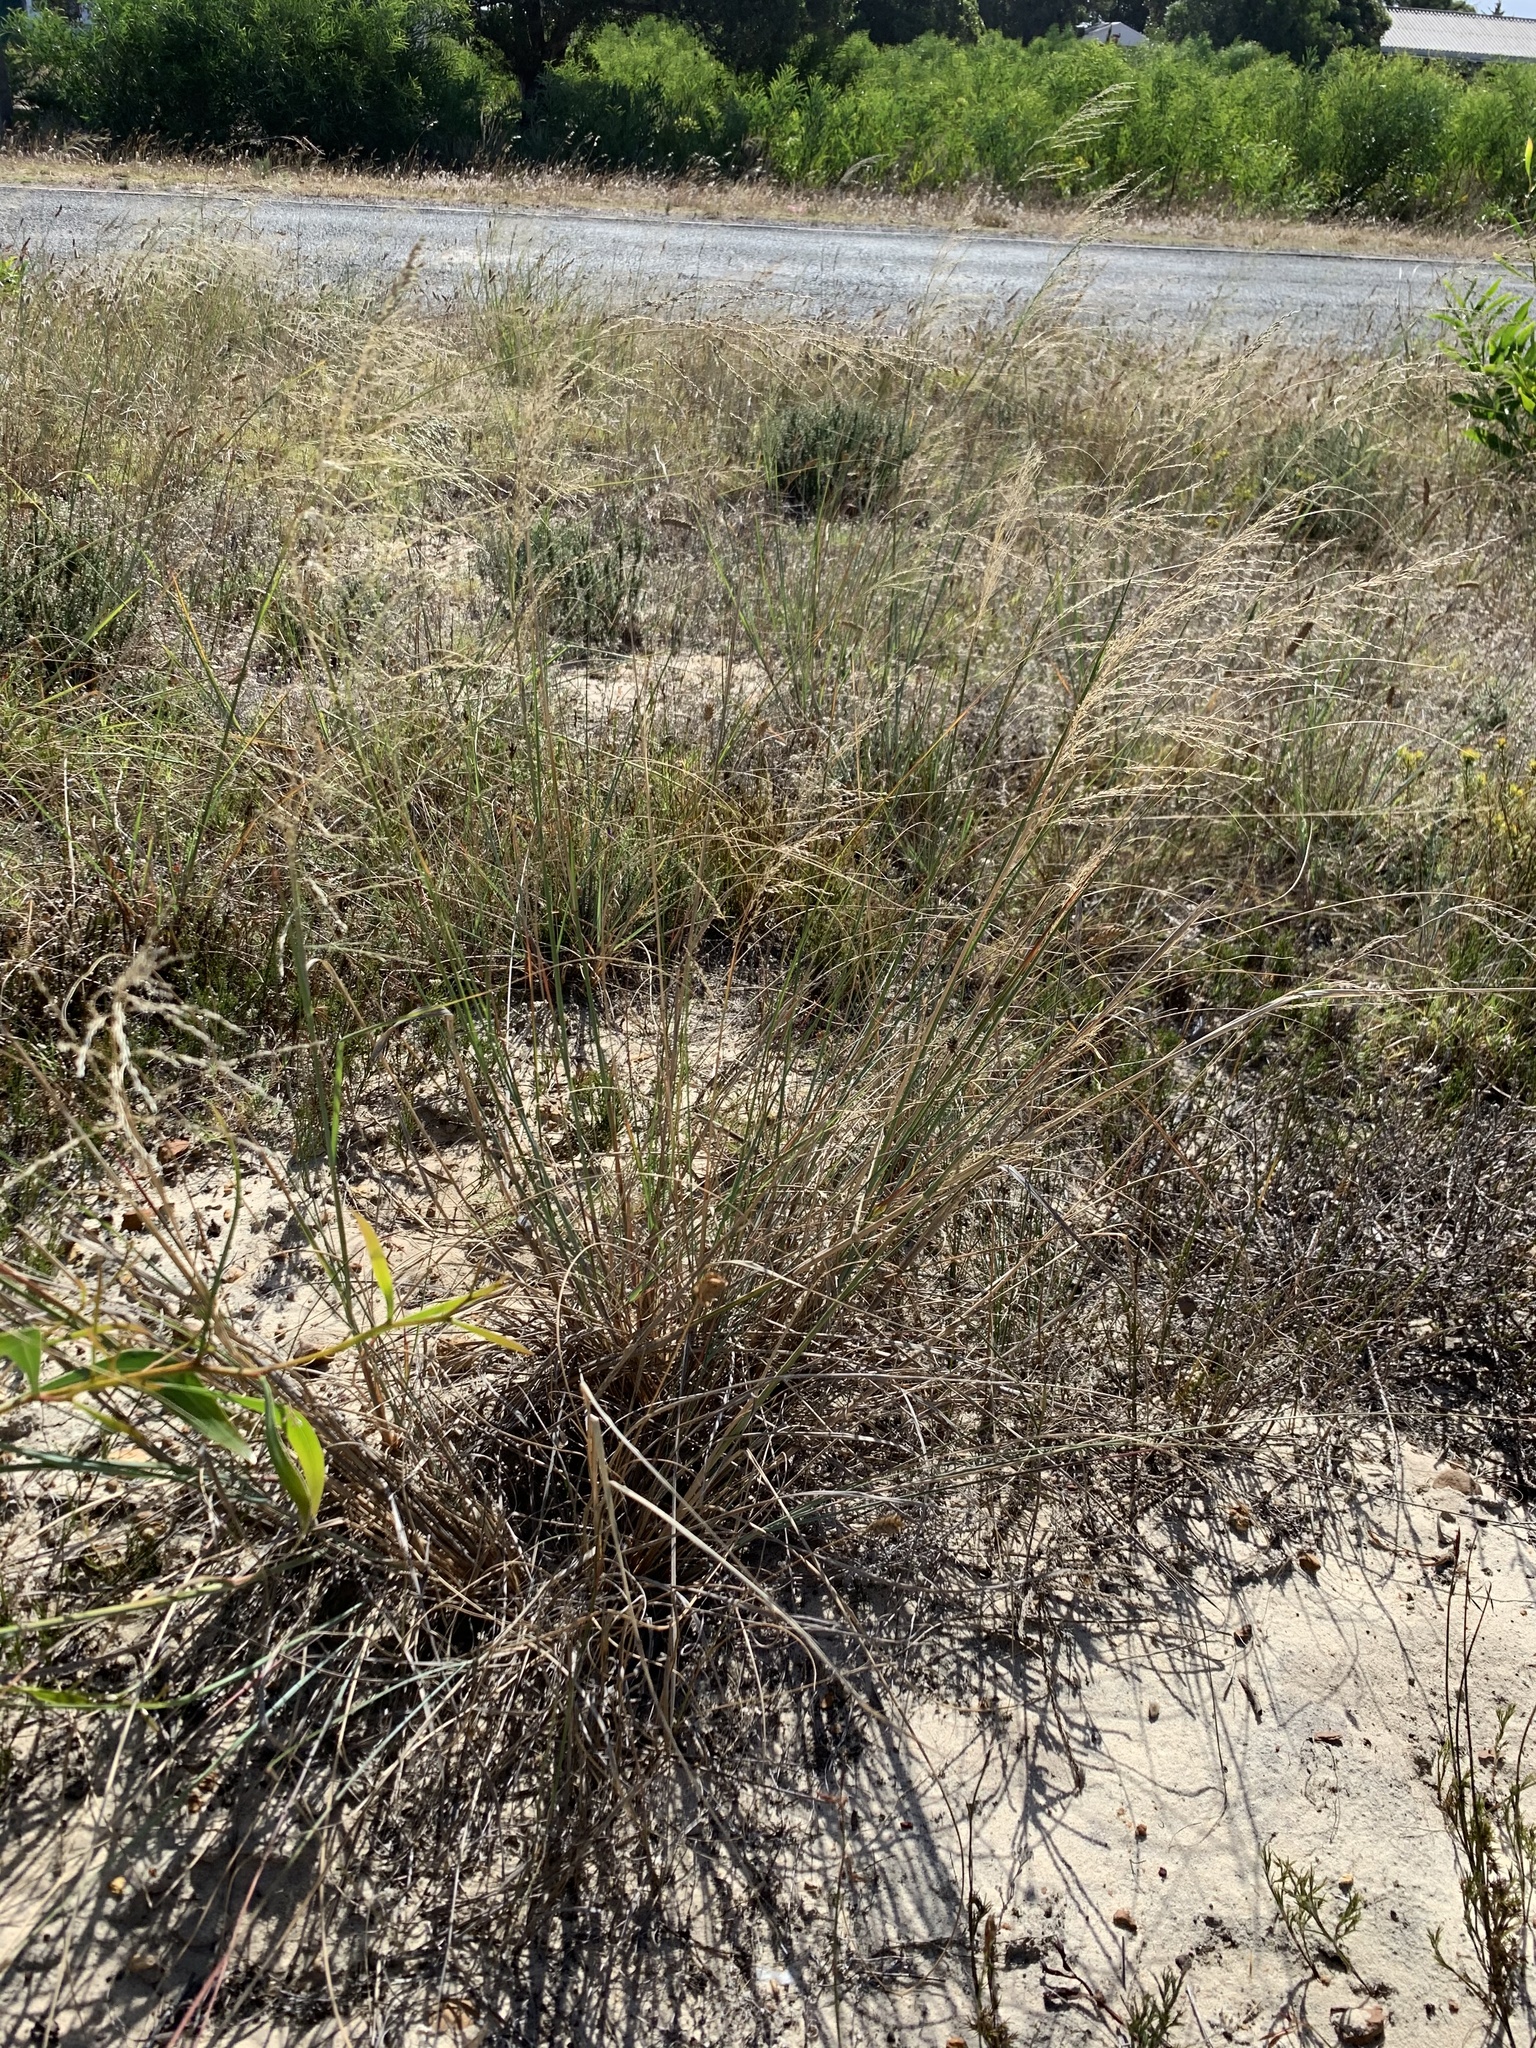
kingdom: Plantae
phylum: Tracheophyta
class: Liliopsida
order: Poales
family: Poaceae
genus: Eragrostis
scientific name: Eragrostis curvula
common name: African love-grass
